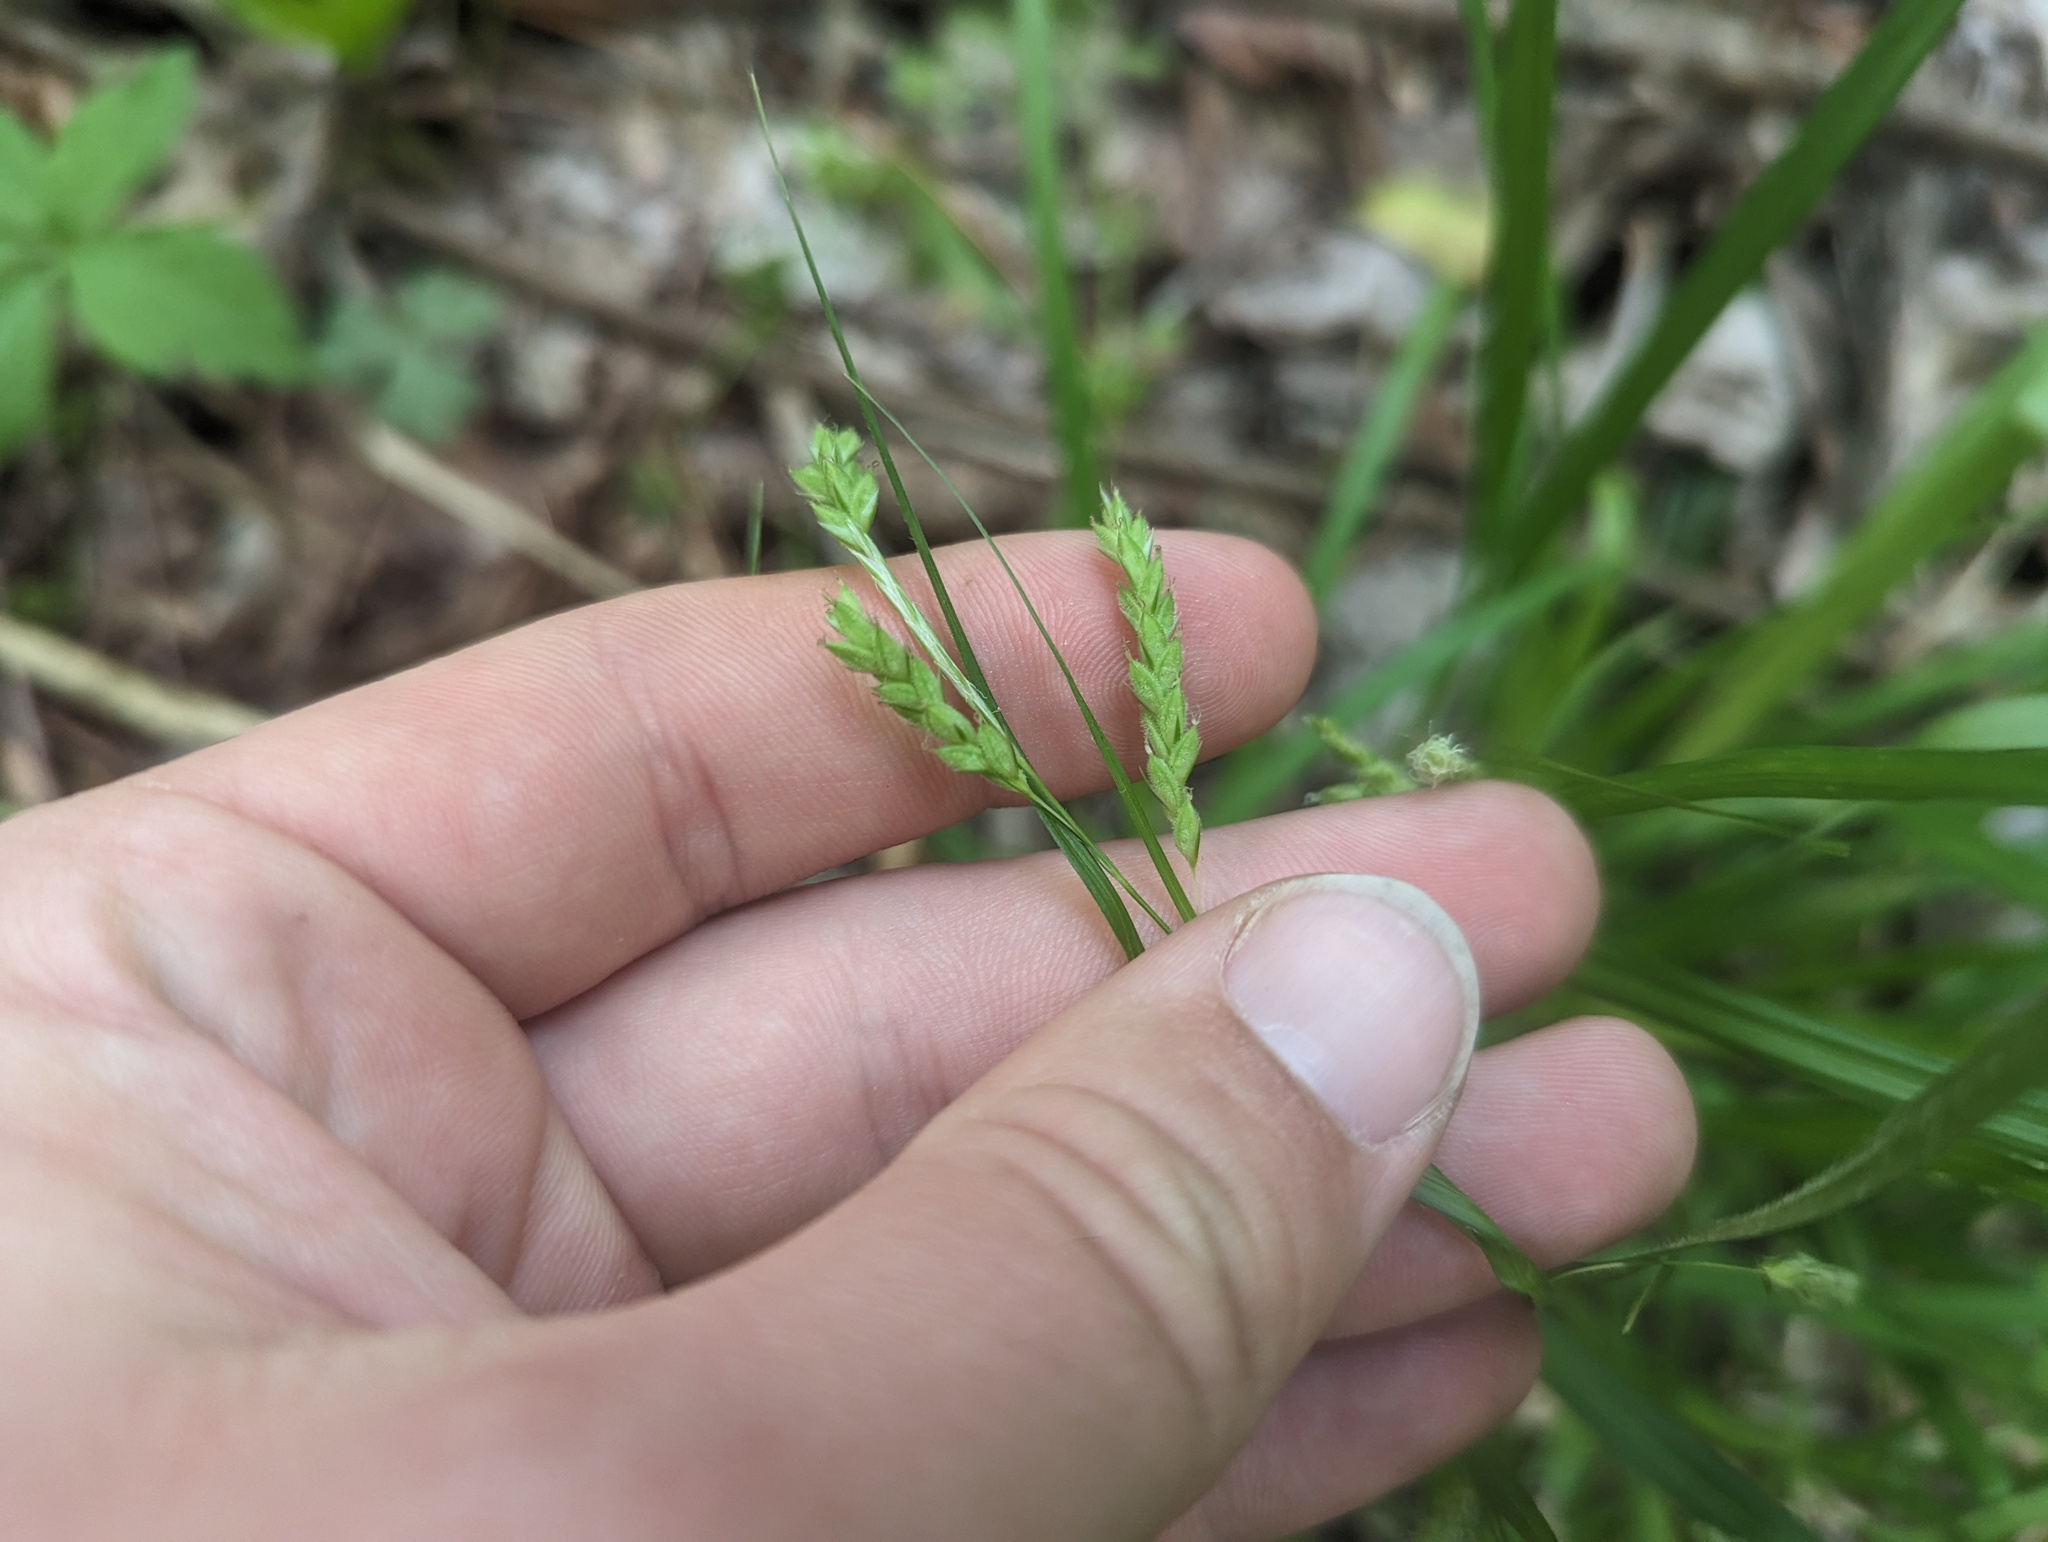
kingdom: Plantae
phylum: Tracheophyta
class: Liliopsida
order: Poales
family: Cyperaceae
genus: Carex
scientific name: Carex oxylepis
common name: Sharpscale sedge
